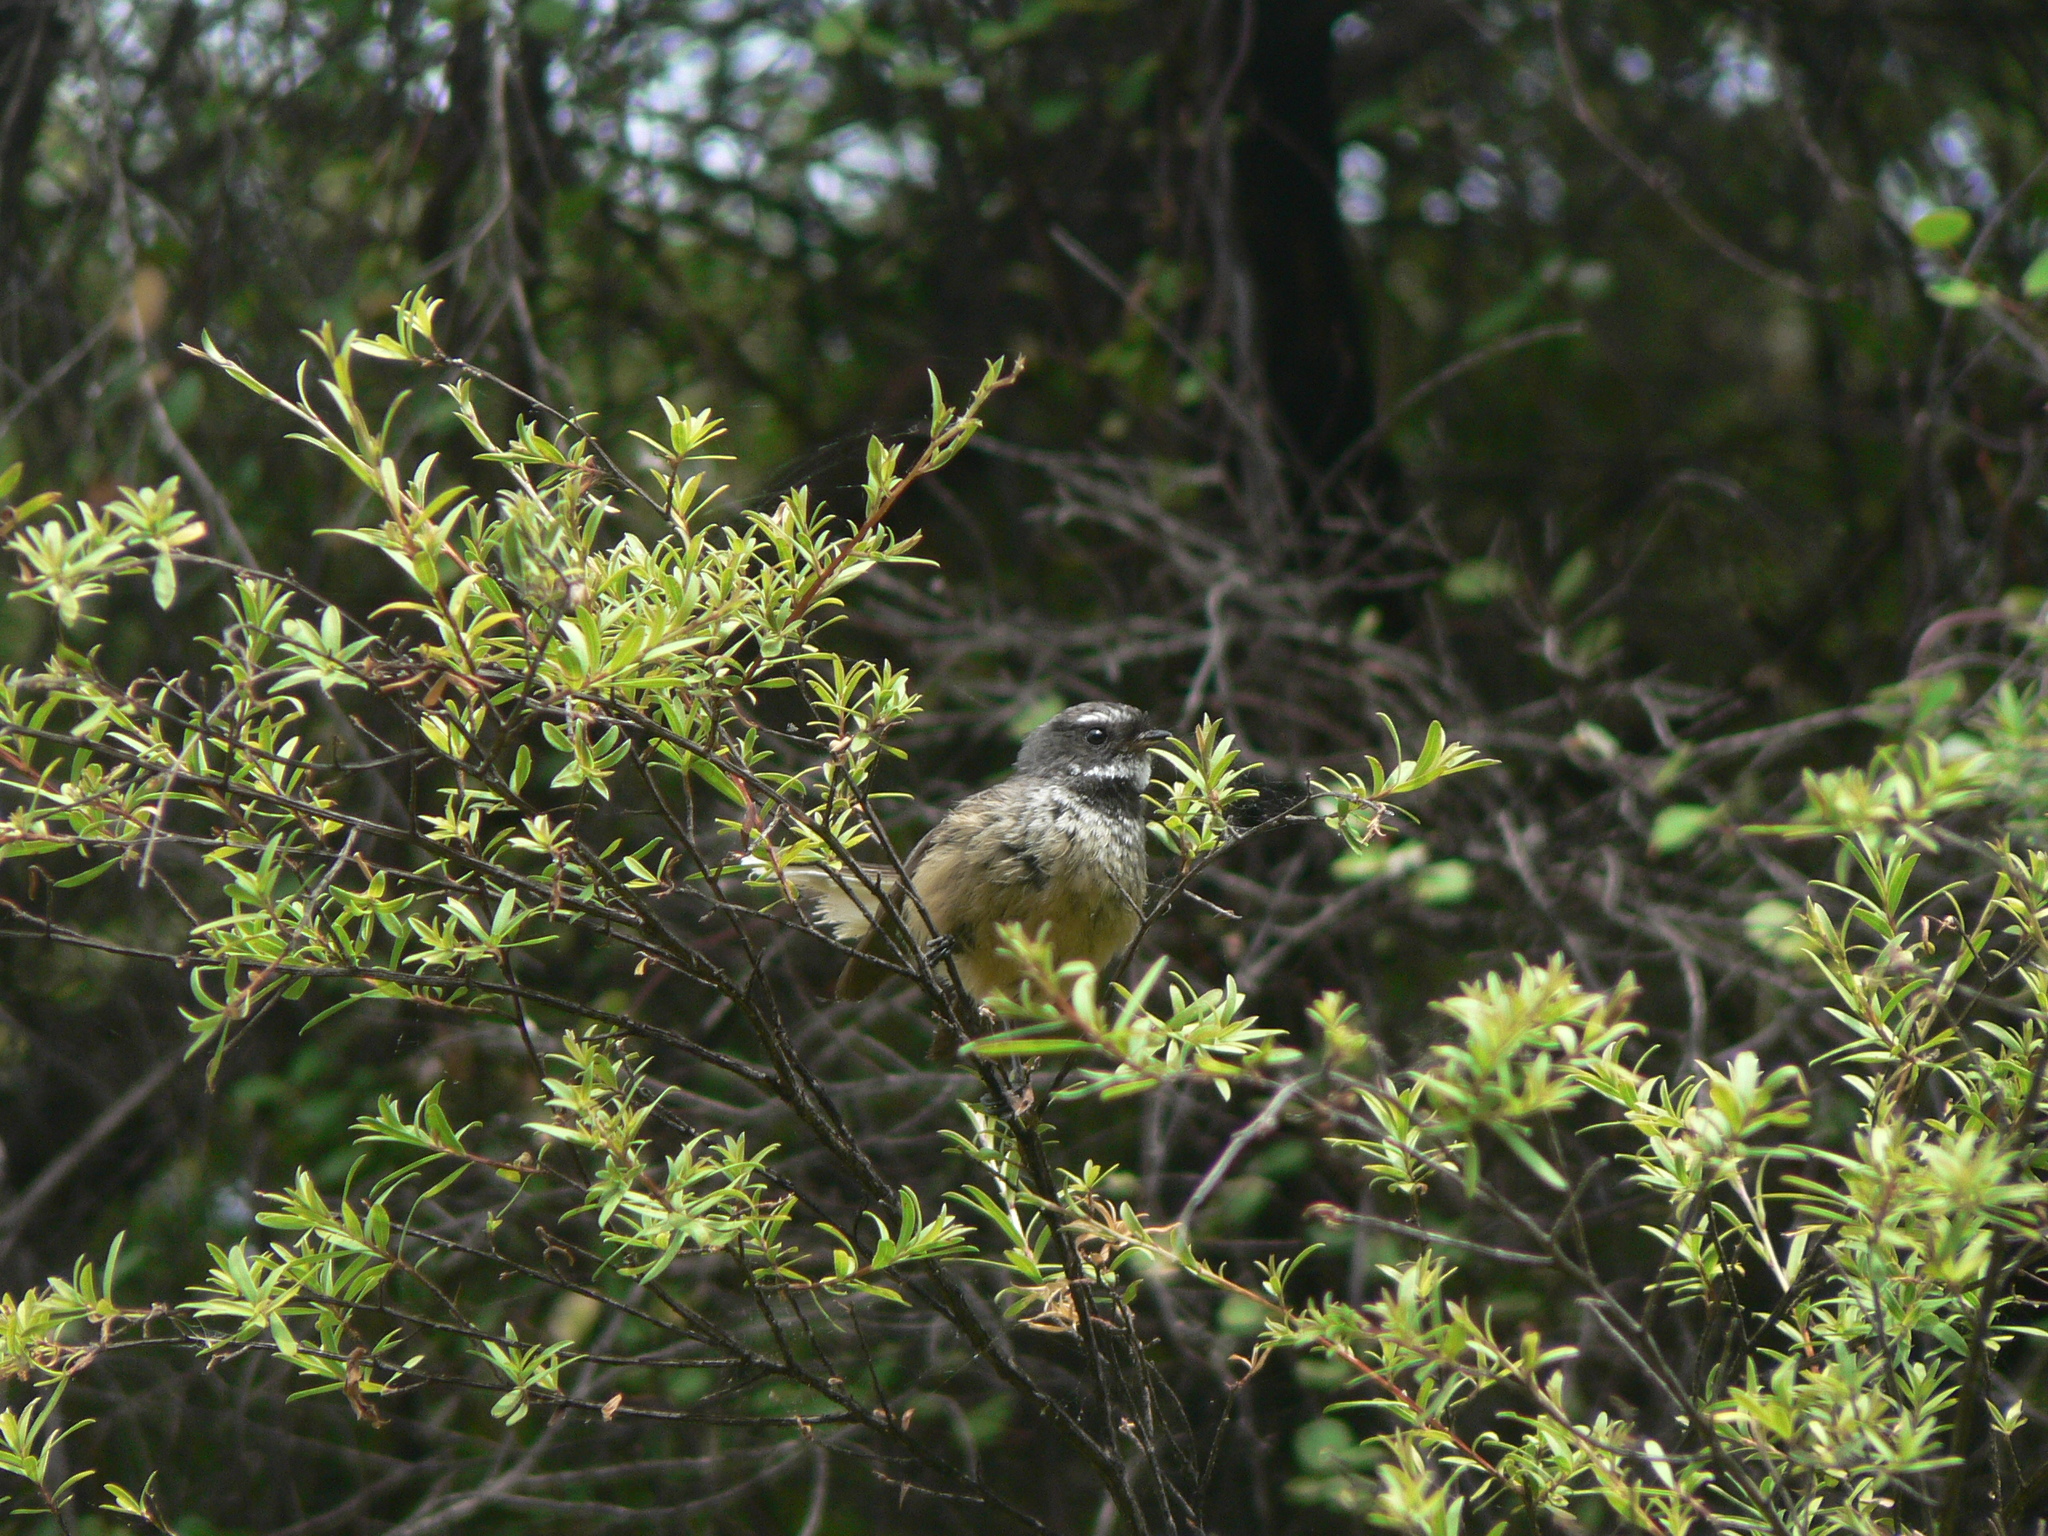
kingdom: Animalia
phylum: Chordata
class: Aves
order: Passeriformes
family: Rhipiduridae
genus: Rhipidura
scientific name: Rhipidura fuliginosa
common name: New zealand fantail
